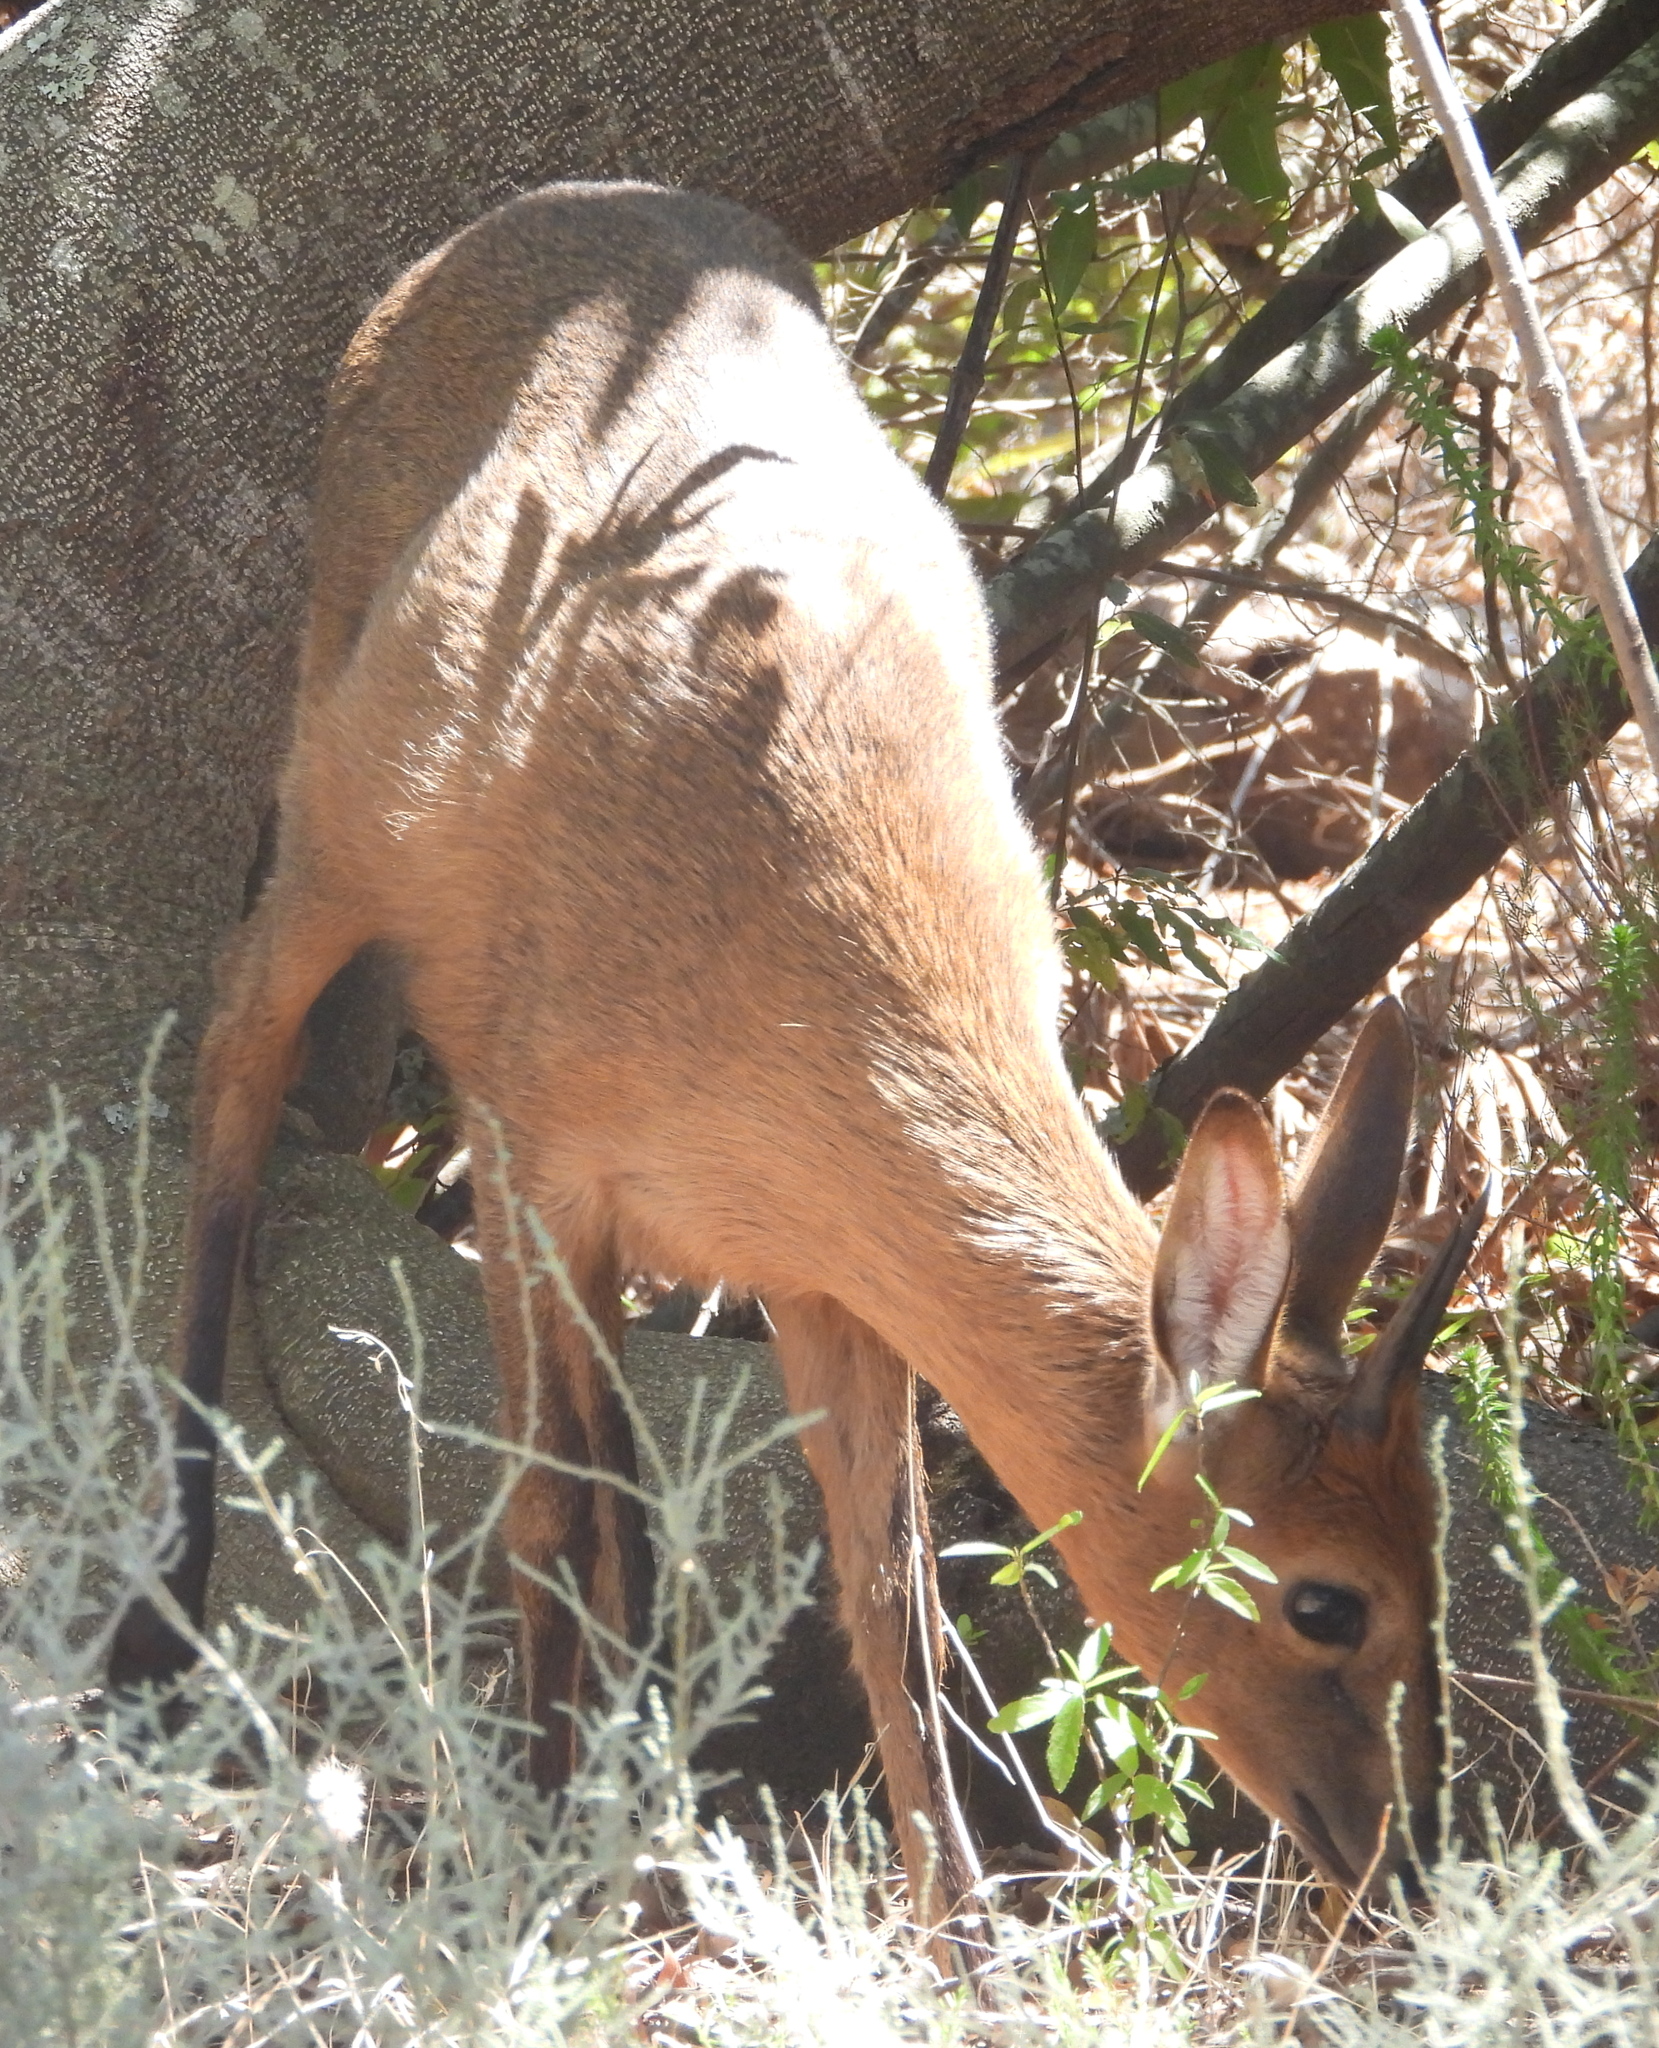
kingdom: Animalia
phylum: Chordata
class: Mammalia
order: Artiodactyla
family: Bovidae
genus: Sylvicapra
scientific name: Sylvicapra grimmia
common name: Bush duiker
